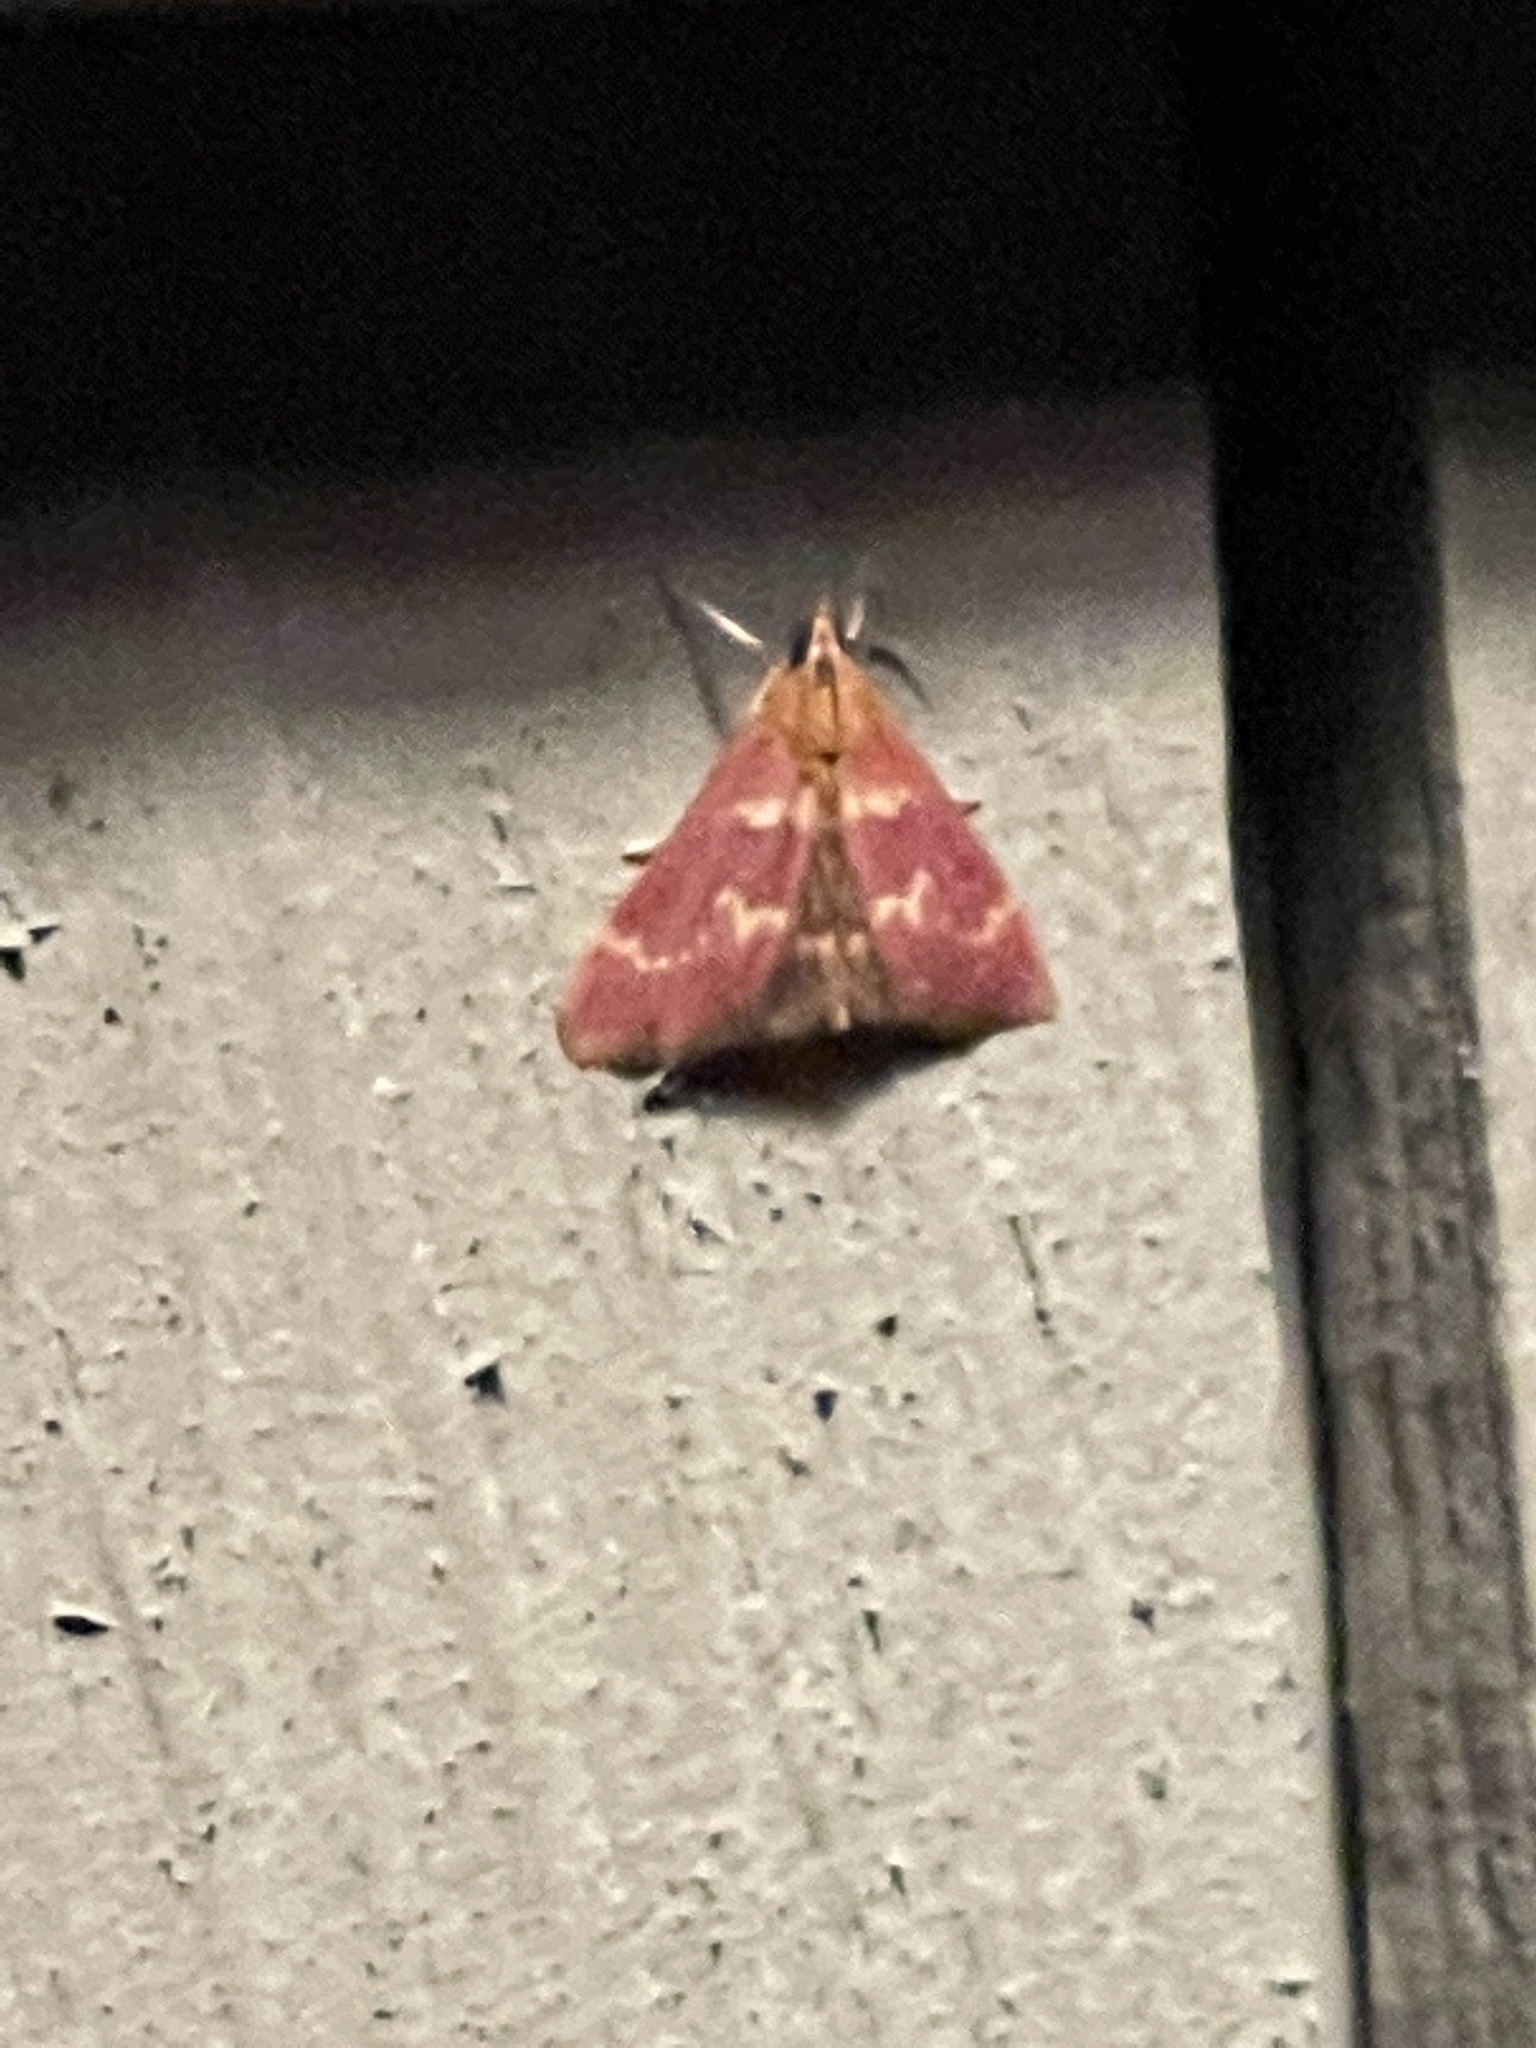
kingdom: Animalia
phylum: Arthropoda
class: Insecta
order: Lepidoptera
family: Crambidae
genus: Pyrausta
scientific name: Pyrausta signatalis
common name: Raspberry pyrausta moth
